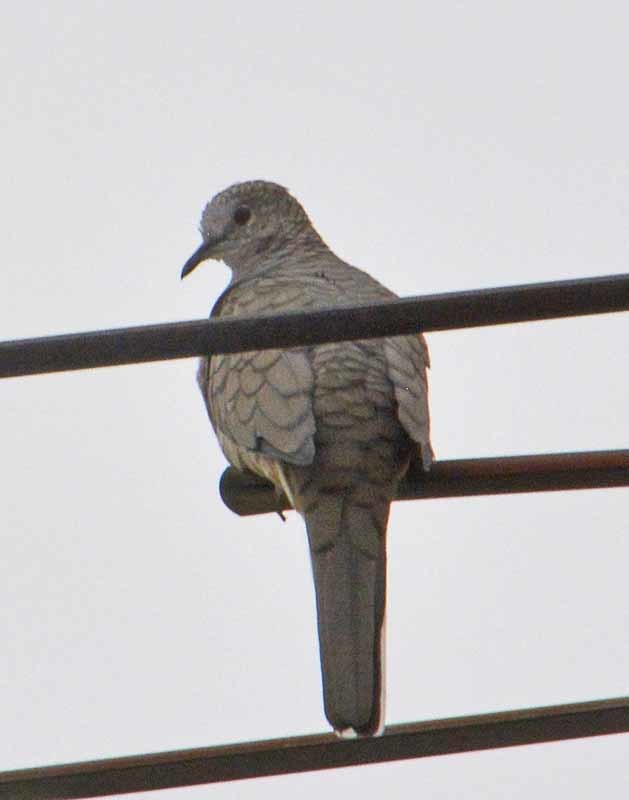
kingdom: Animalia
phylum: Chordata
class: Aves
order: Columbiformes
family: Columbidae
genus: Columbina
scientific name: Columbina inca
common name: Inca dove
